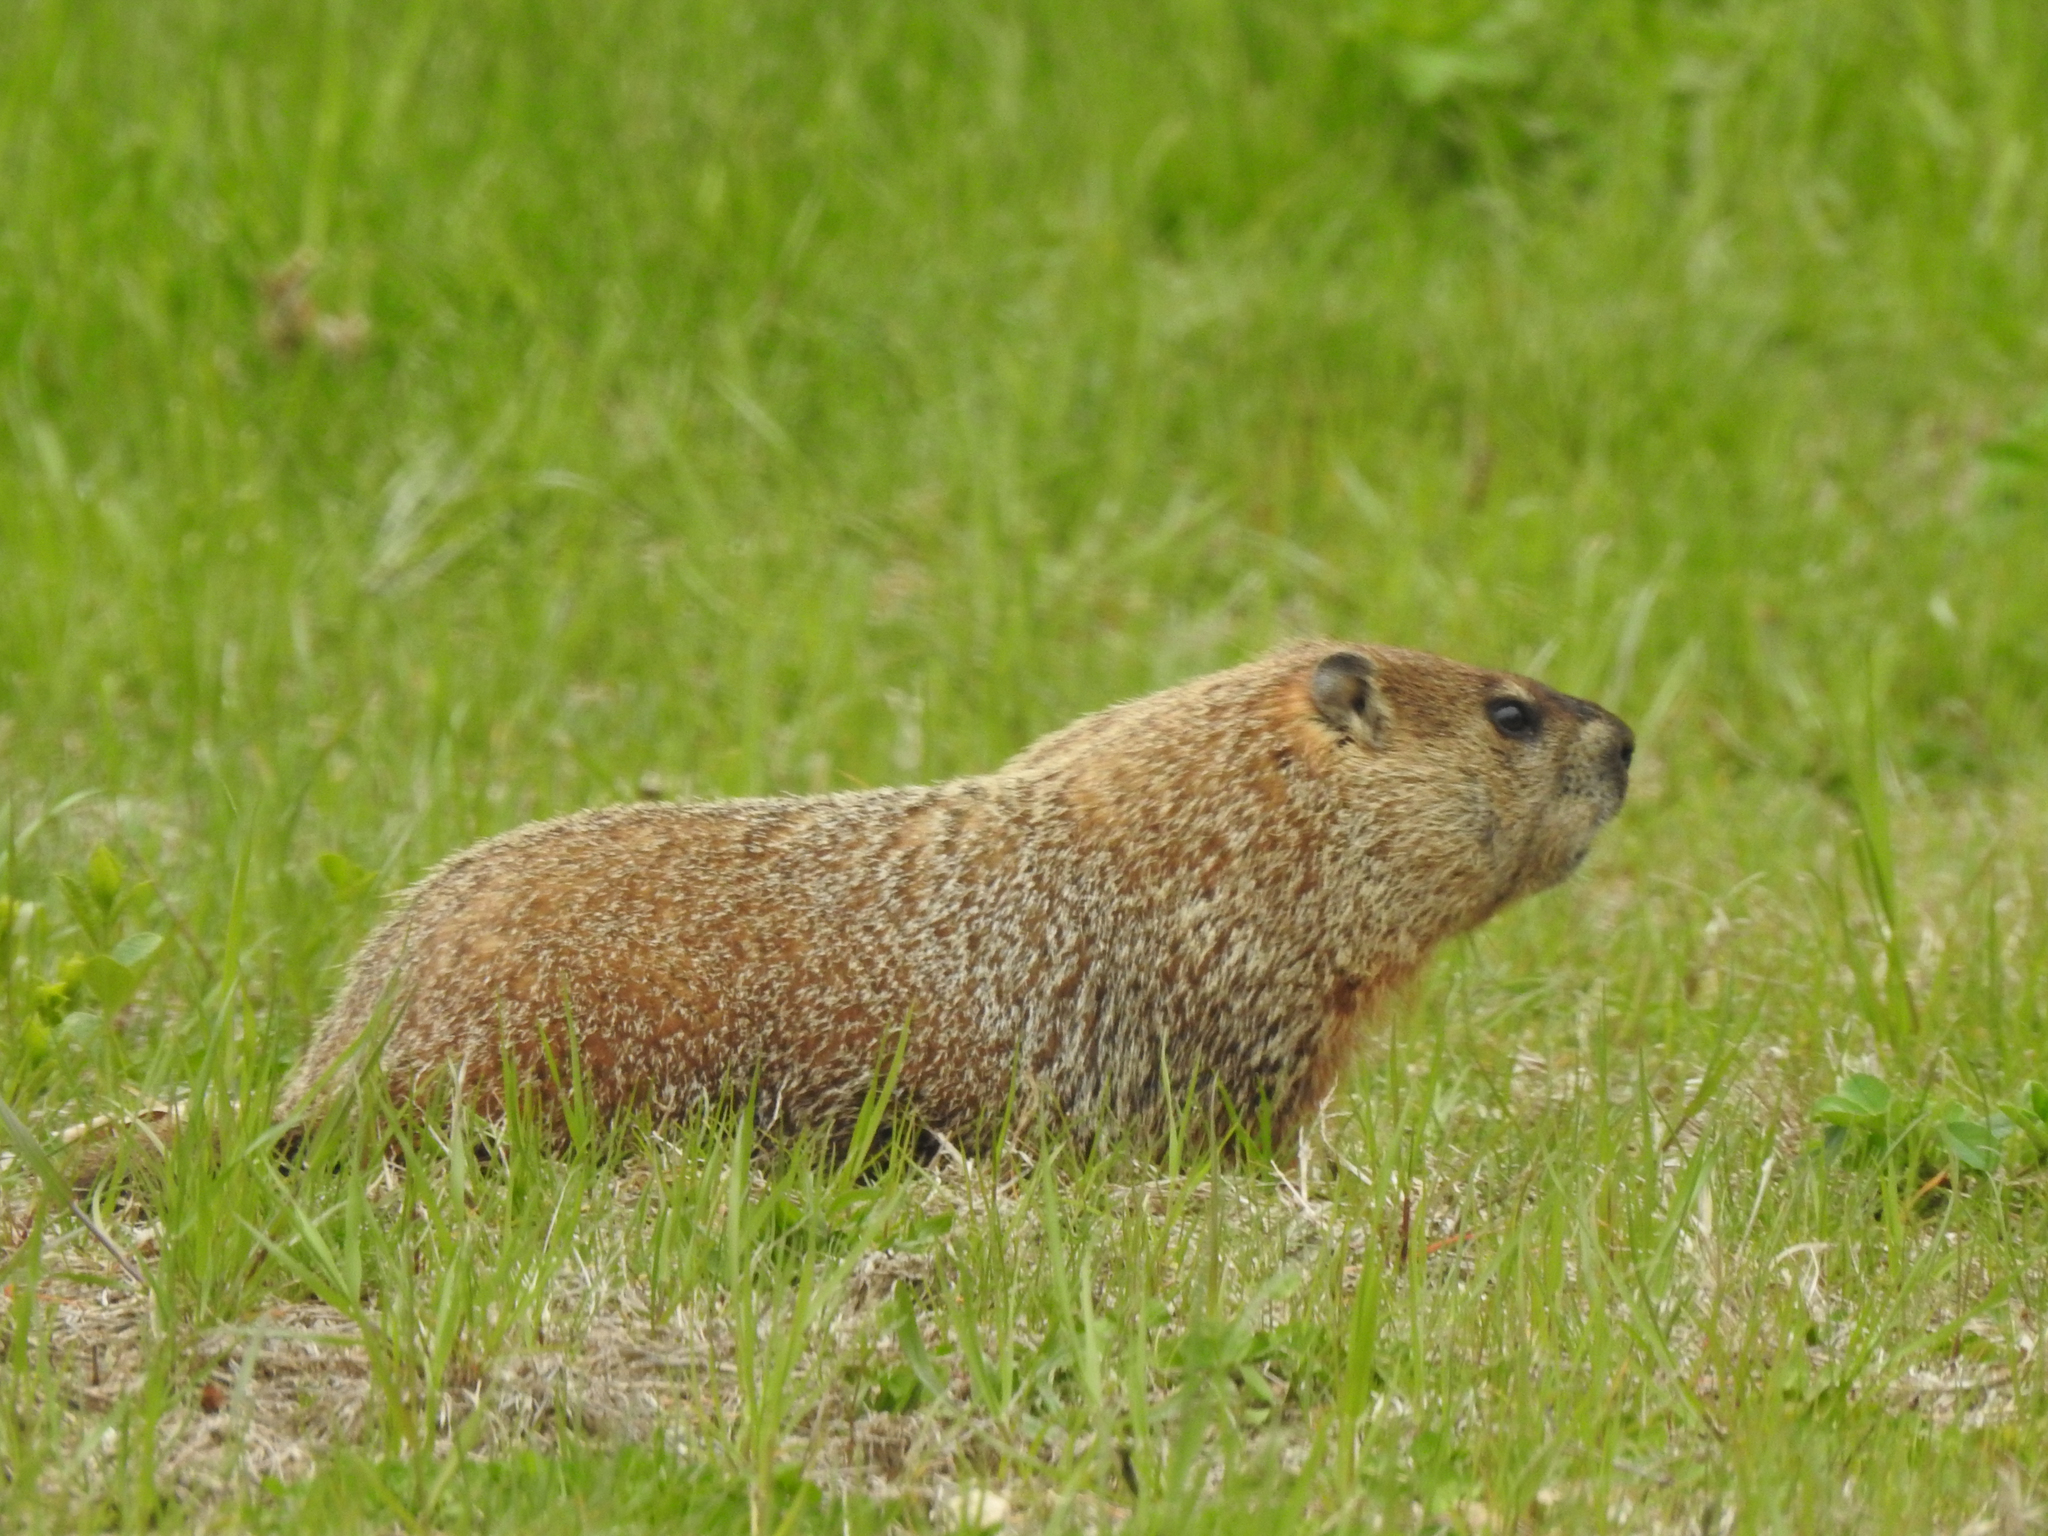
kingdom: Animalia
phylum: Chordata
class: Mammalia
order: Rodentia
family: Sciuridae
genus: Marmota
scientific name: Marmota monax
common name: Groundhog
